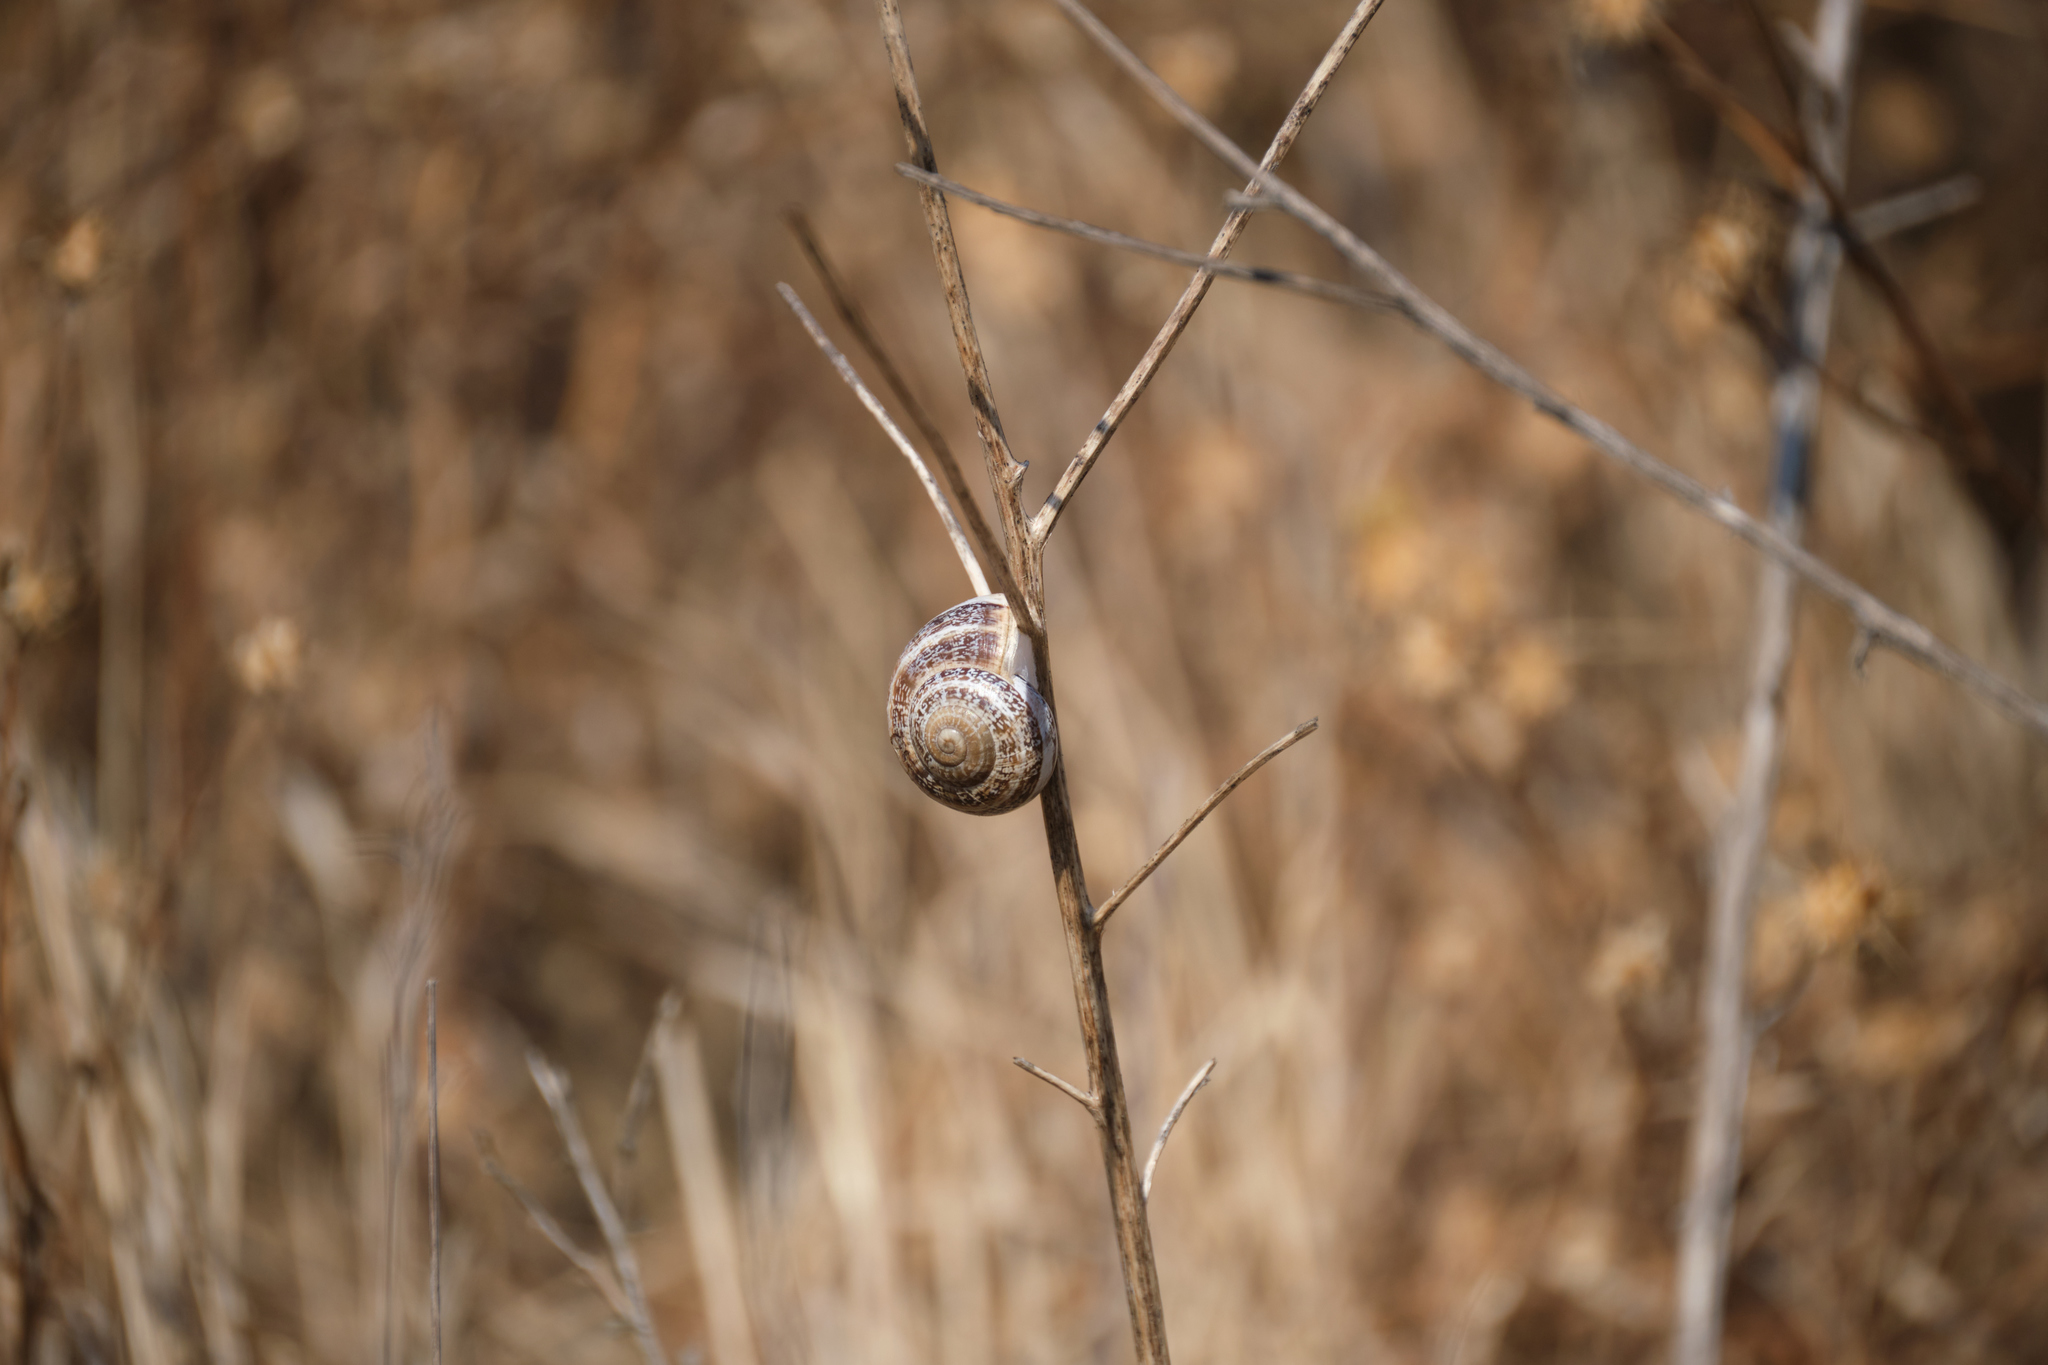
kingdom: Animalia
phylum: Mollusca
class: Gastropoda
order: Stylommatophora
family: Helicidae
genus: Otala
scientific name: Otala lactea
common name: Milk snail
